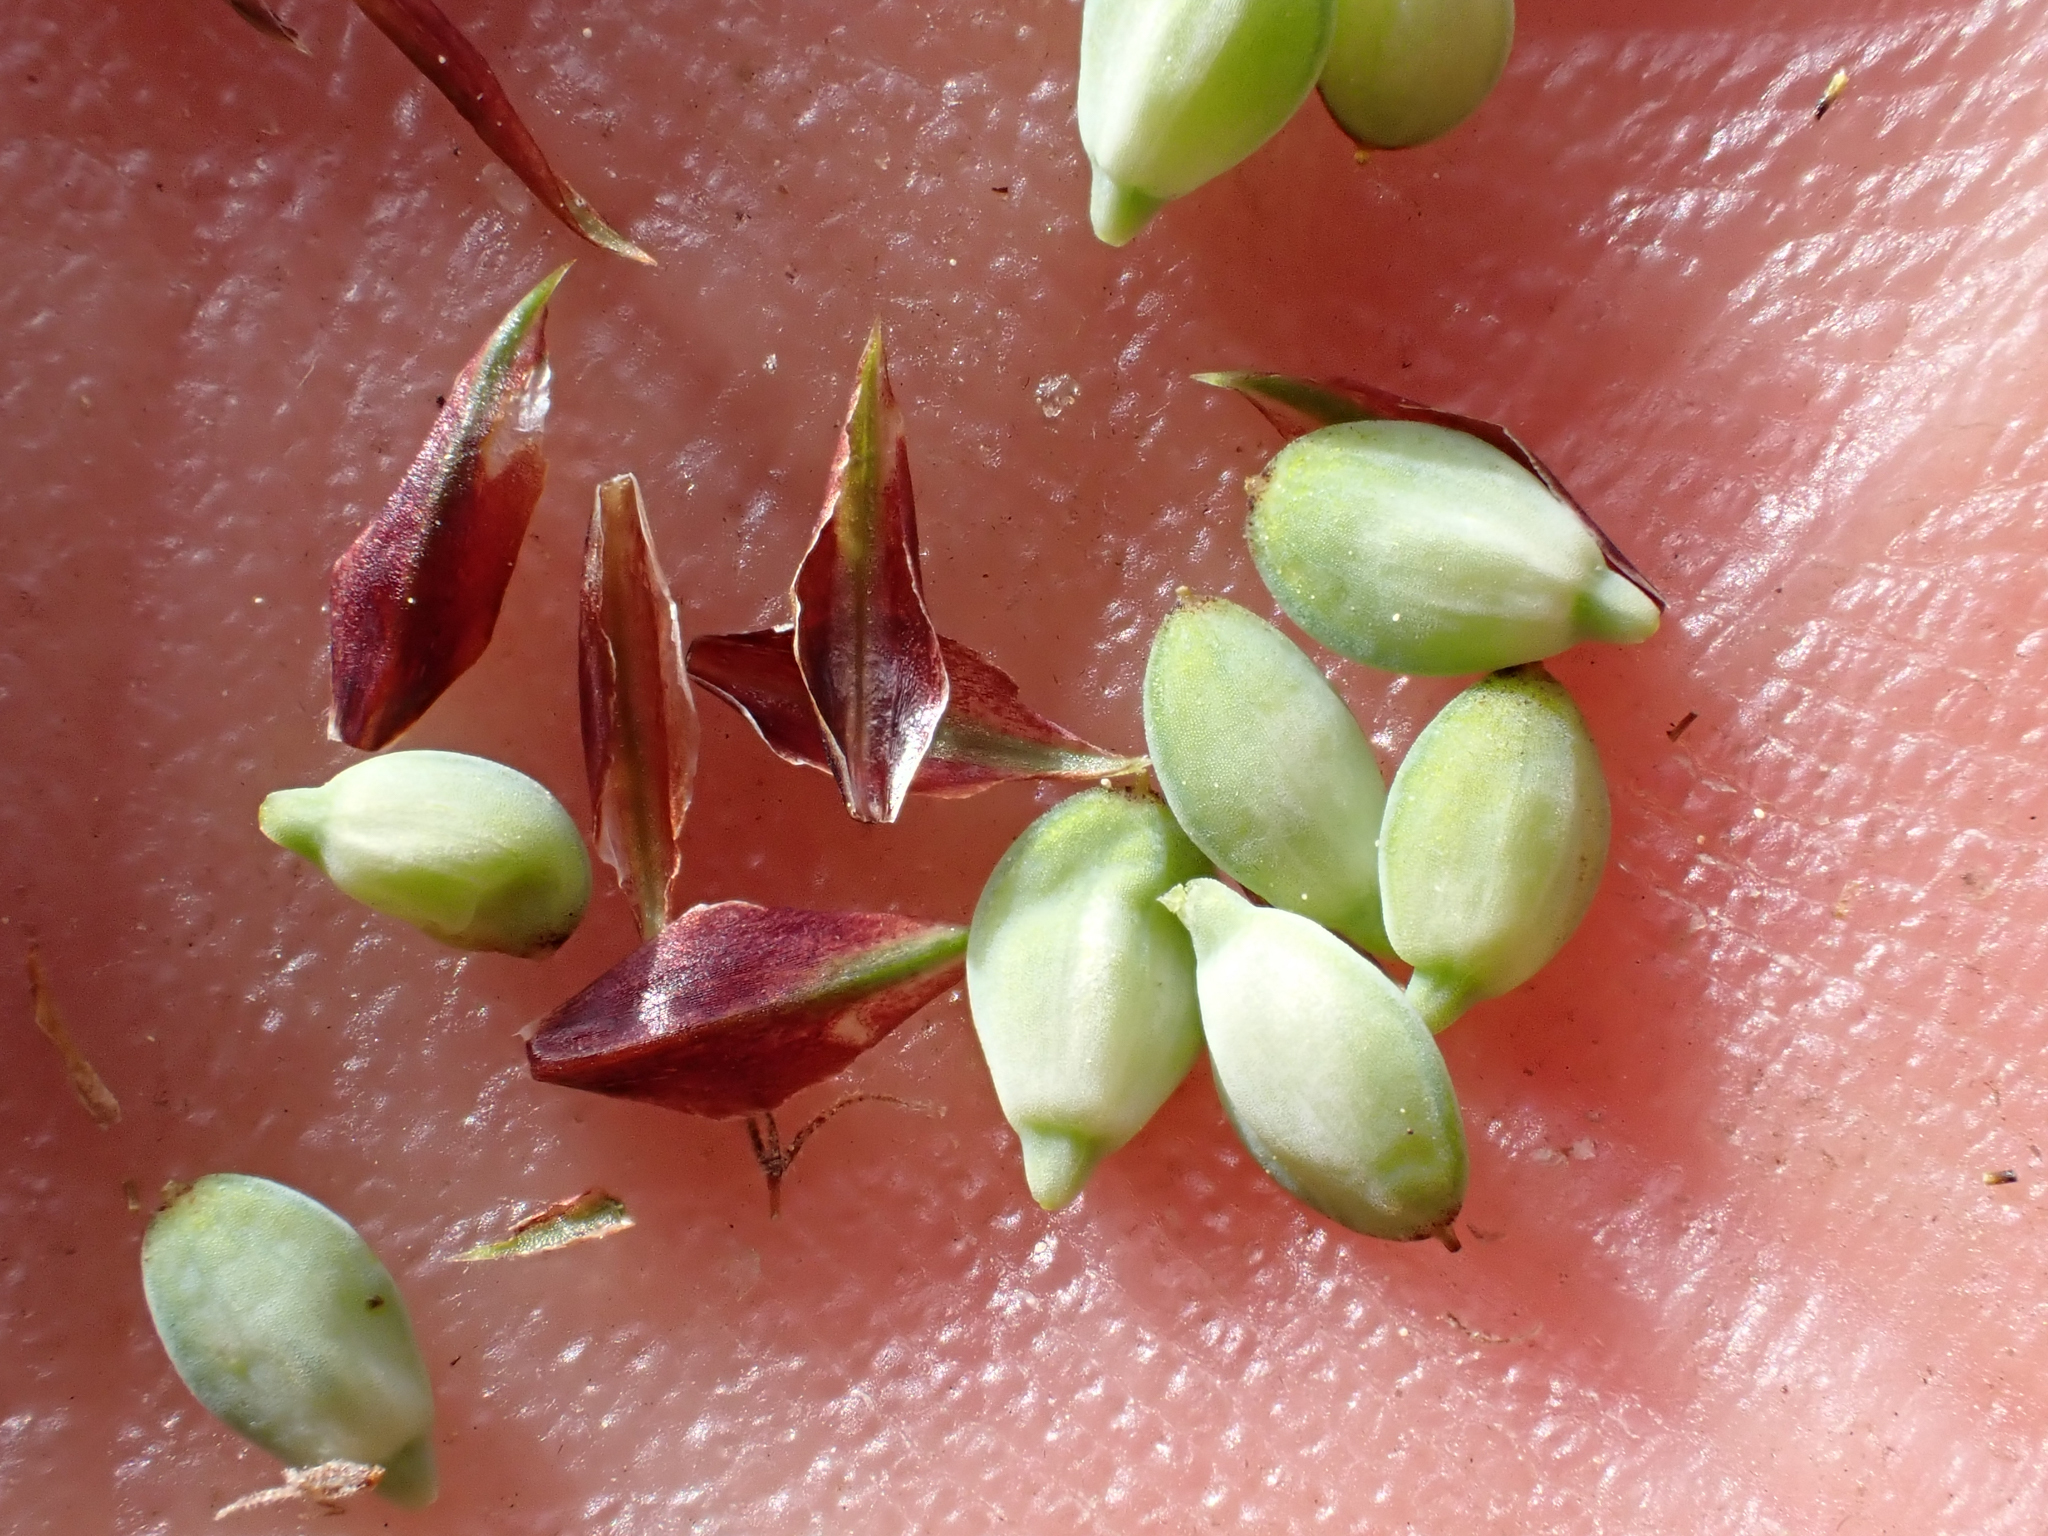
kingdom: Plantae
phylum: Tracheophyta
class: Liliopsida
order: Poales
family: Cyperaceae
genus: Carex
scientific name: Carex magellanica
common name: Bog sedge
